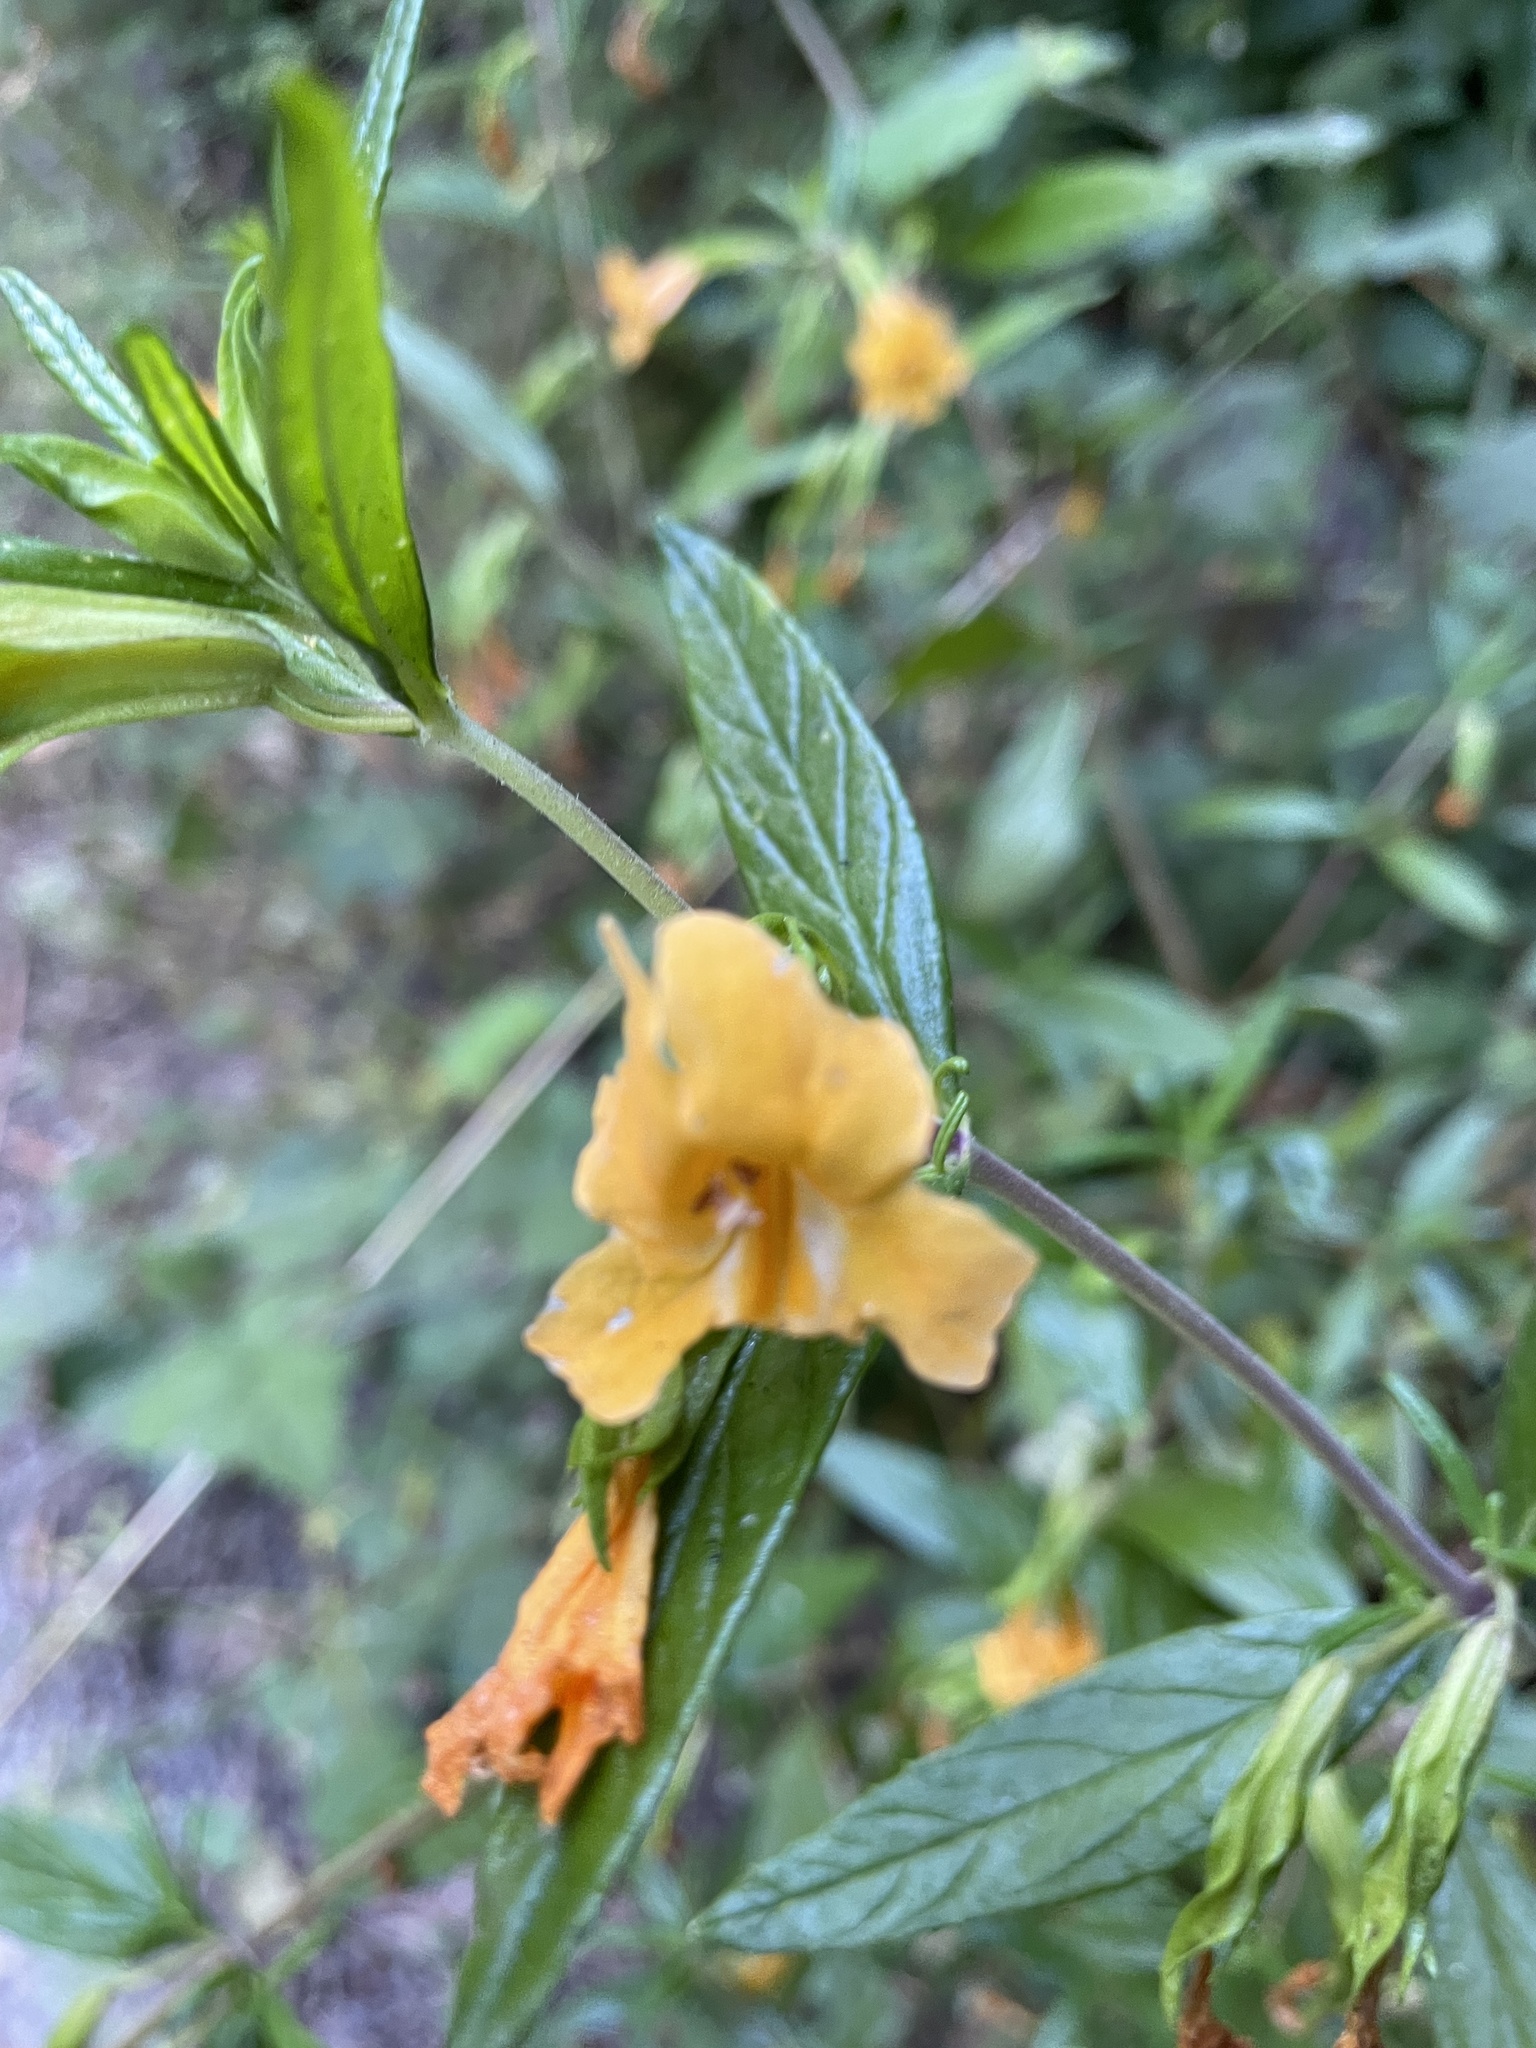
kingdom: Plantae
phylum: Tracheophyta
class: Magnoliopsida
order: Lamiales
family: Phrymaceae
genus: Diplacus
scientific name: Diplacus aurantiacus
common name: Bush monkey-flower
